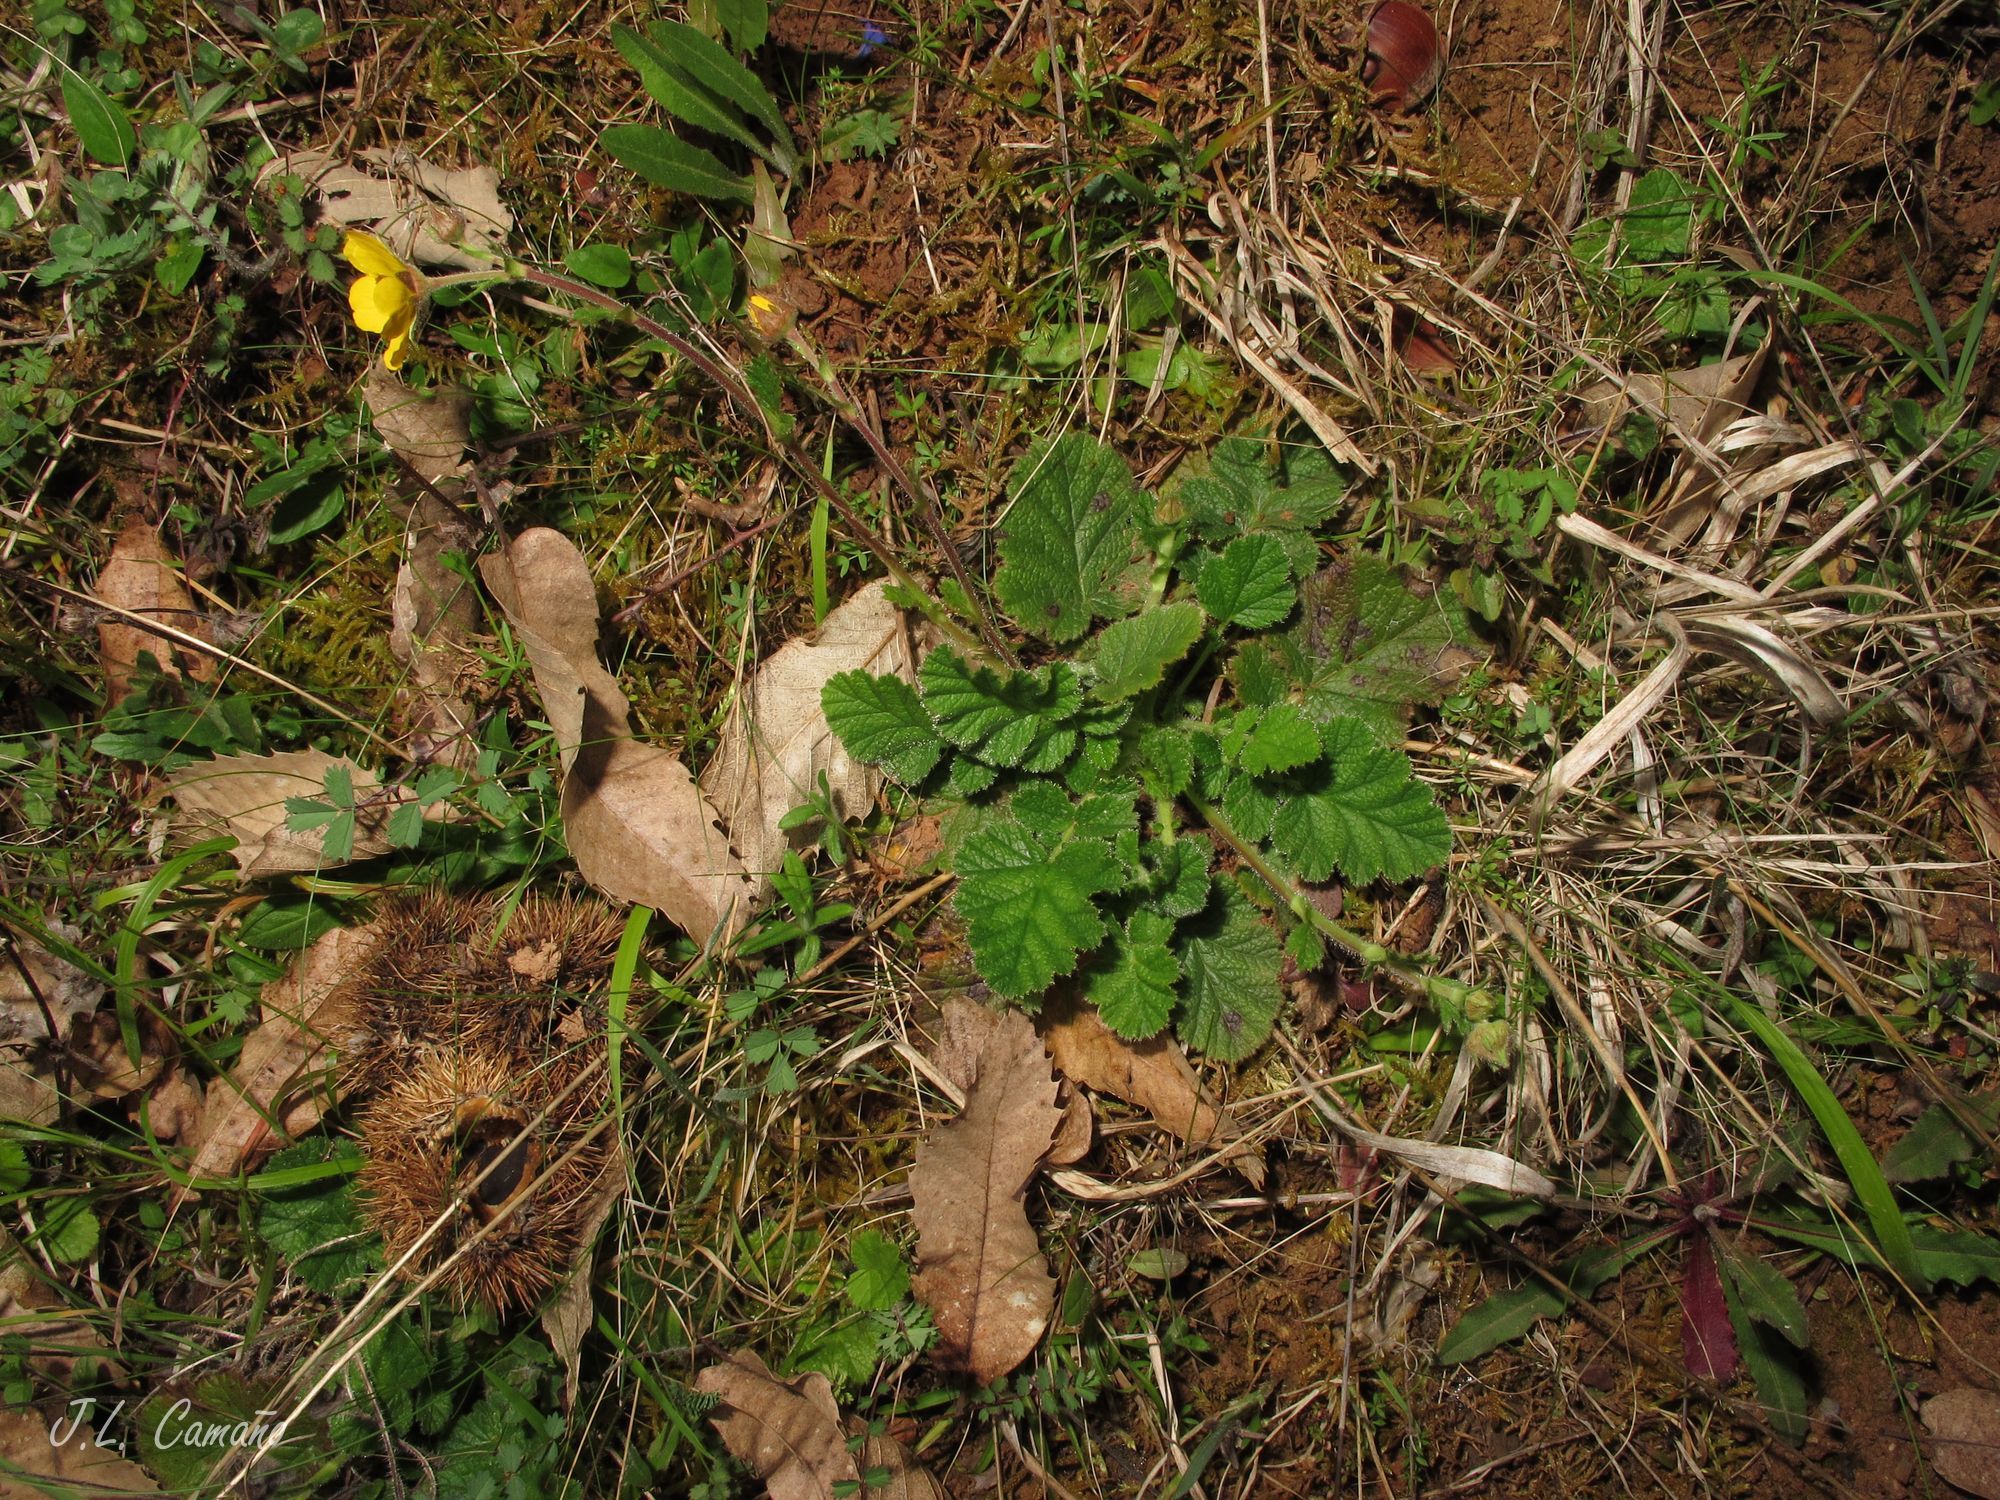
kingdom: Plantae
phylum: Tracheophyta
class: Magnoliopsida
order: Rosales
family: Rosaceae
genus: Geum
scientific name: Geum sylvaticum
